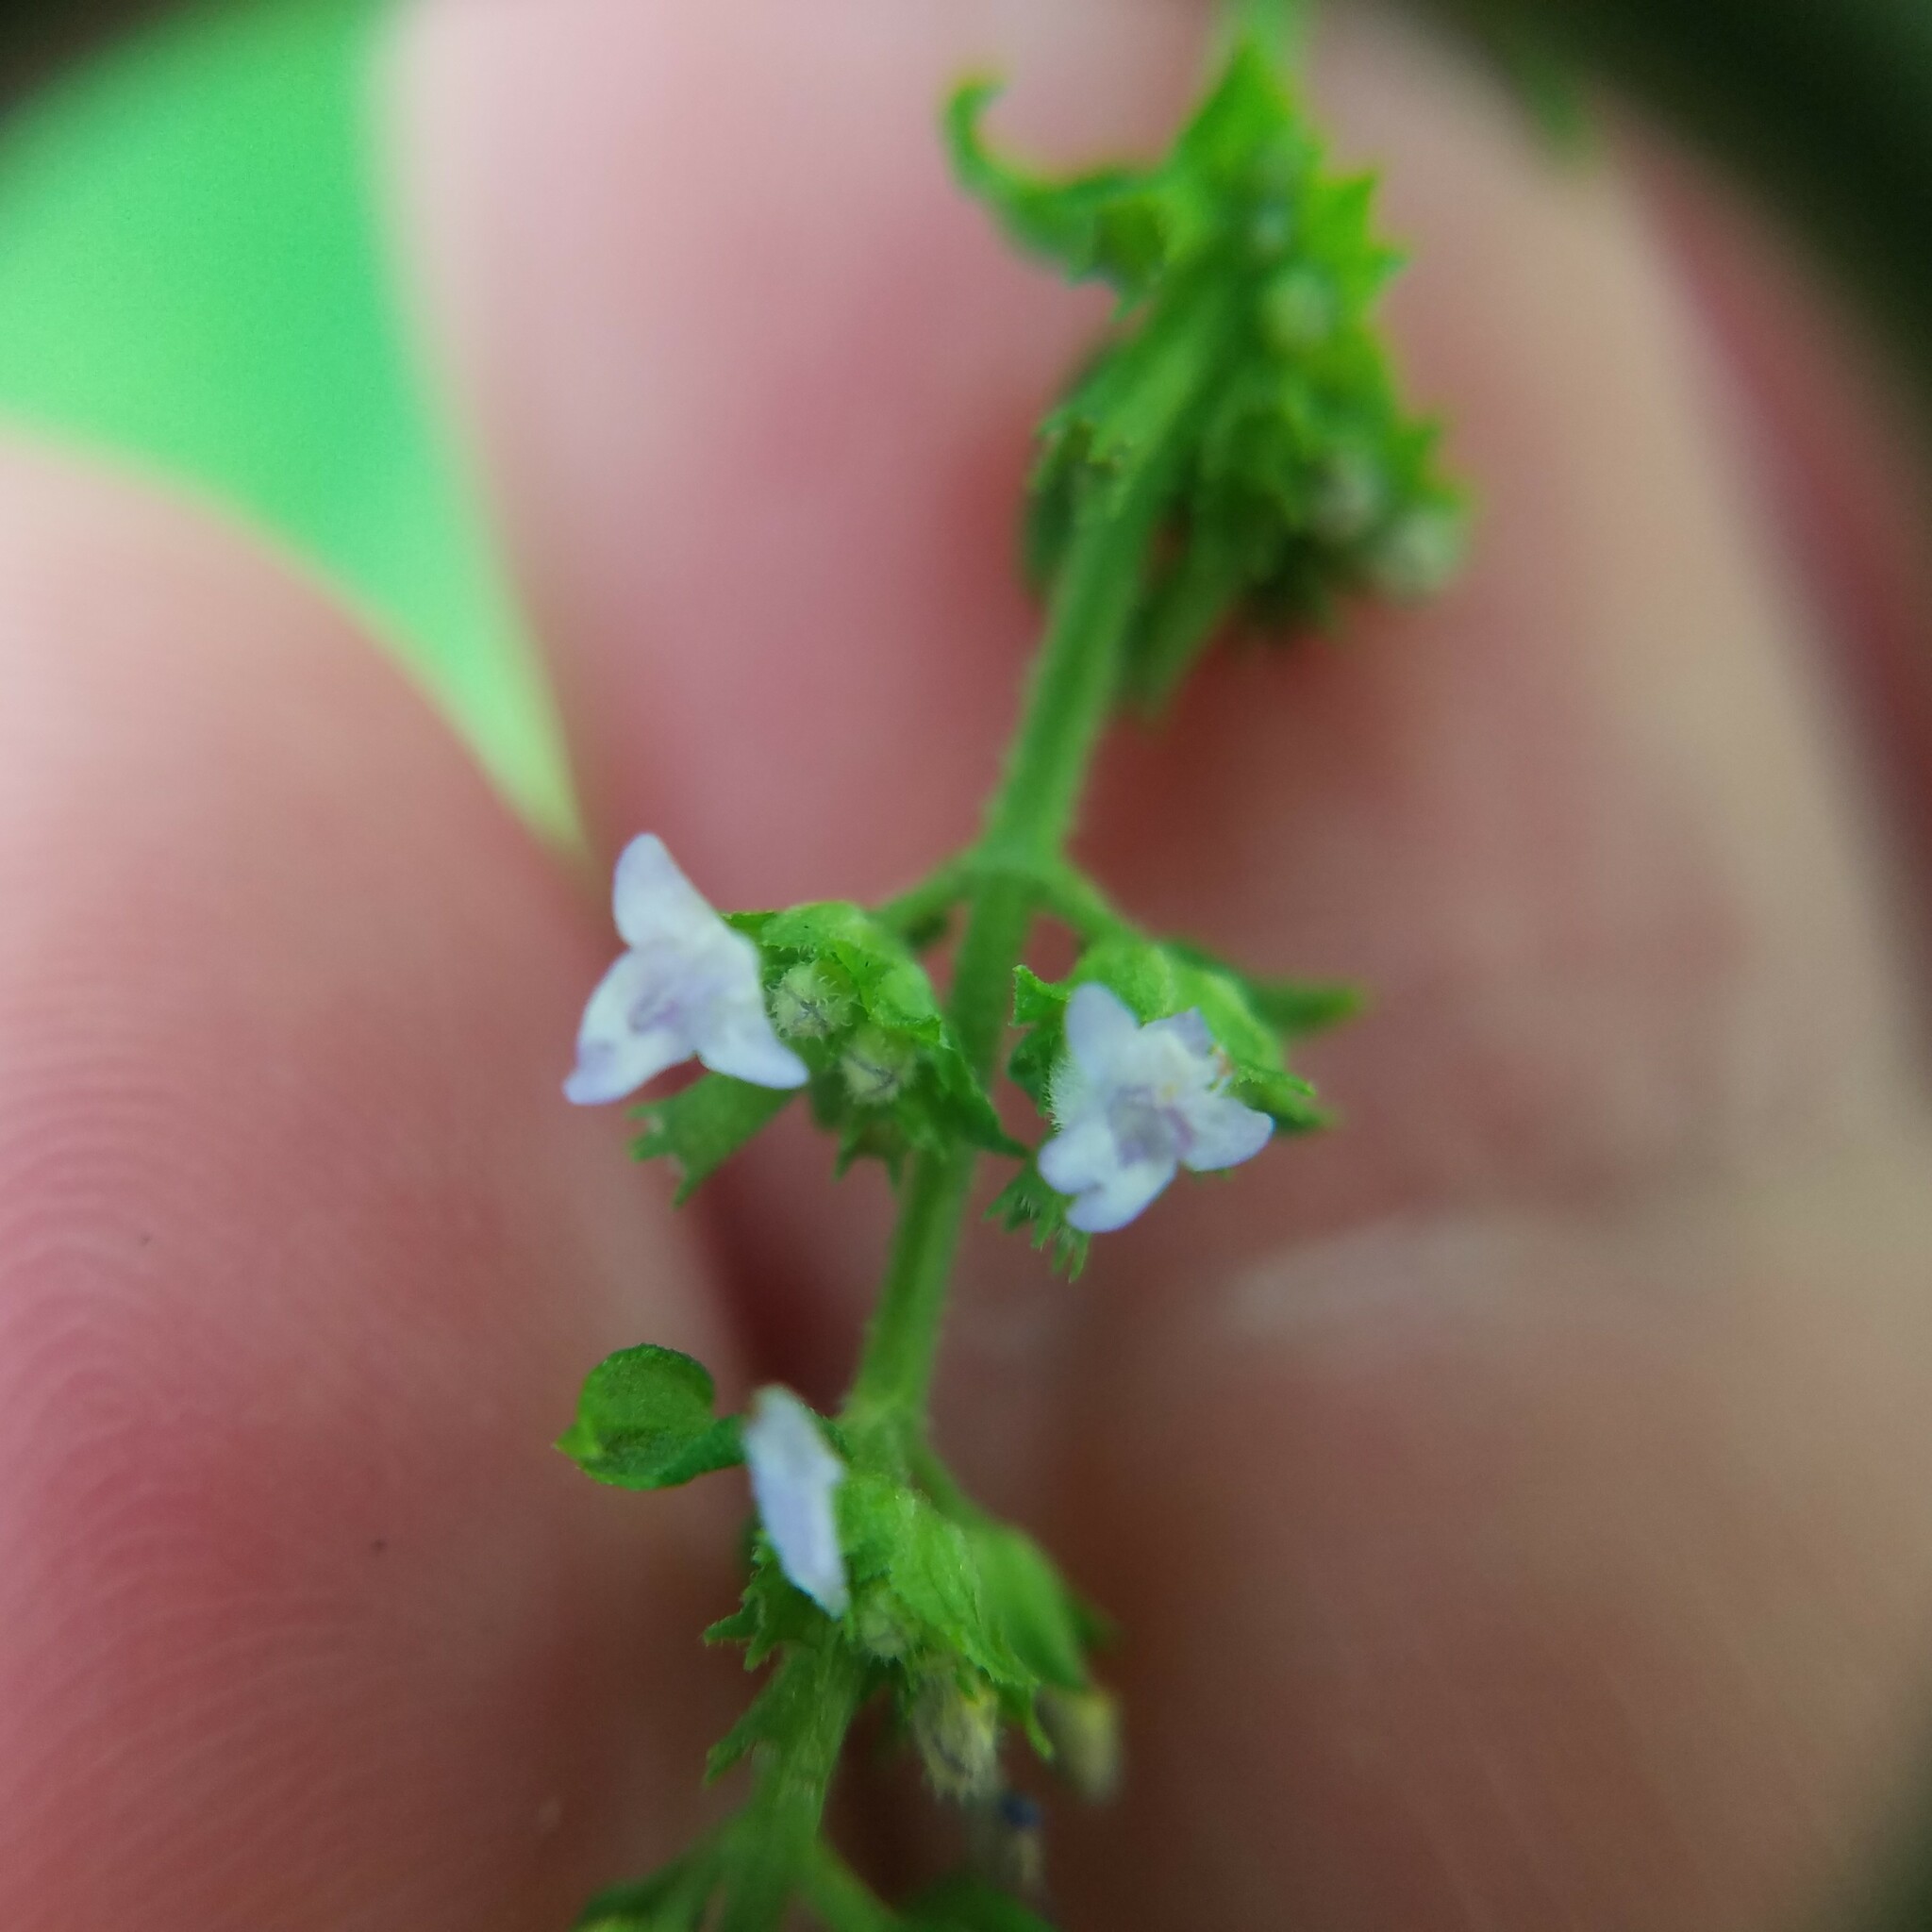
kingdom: Plantae
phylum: Tracheophyta
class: Magnoliopsida
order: Lamiales
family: Lamiaceae
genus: Cantinoa
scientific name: Cantinoa mutabilis
